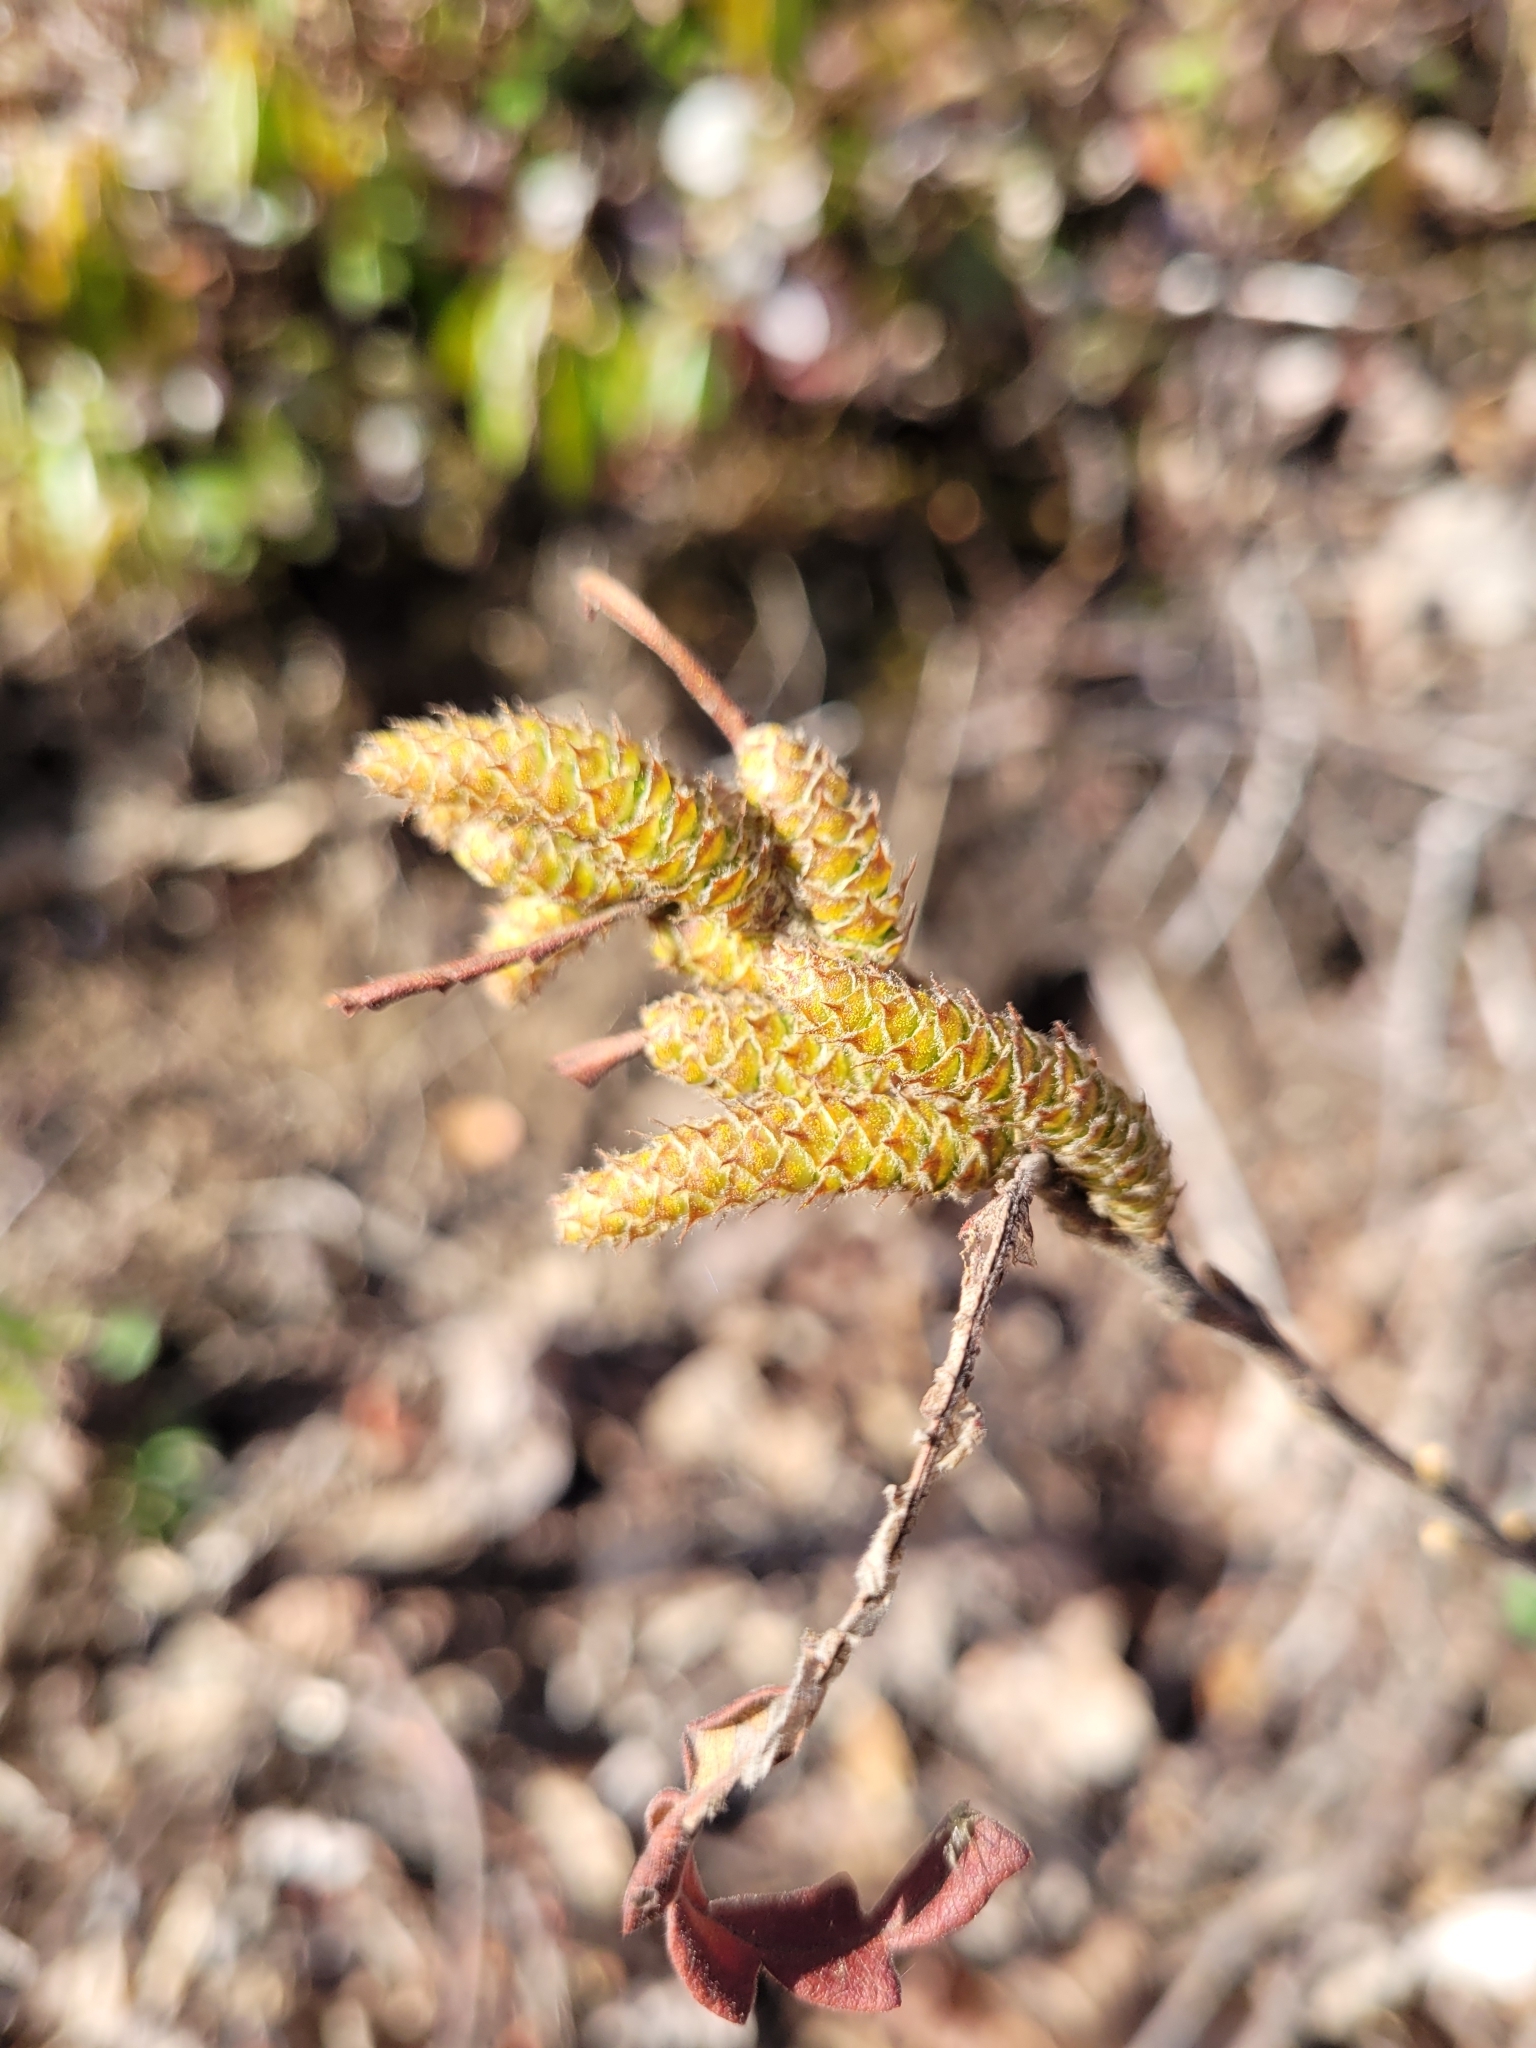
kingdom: Plantae
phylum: Tracheophyta
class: Magnoliopsida
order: Fagales
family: Myricaceae
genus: Comptonia
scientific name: Comptonia peregrina
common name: Sweet-fern
